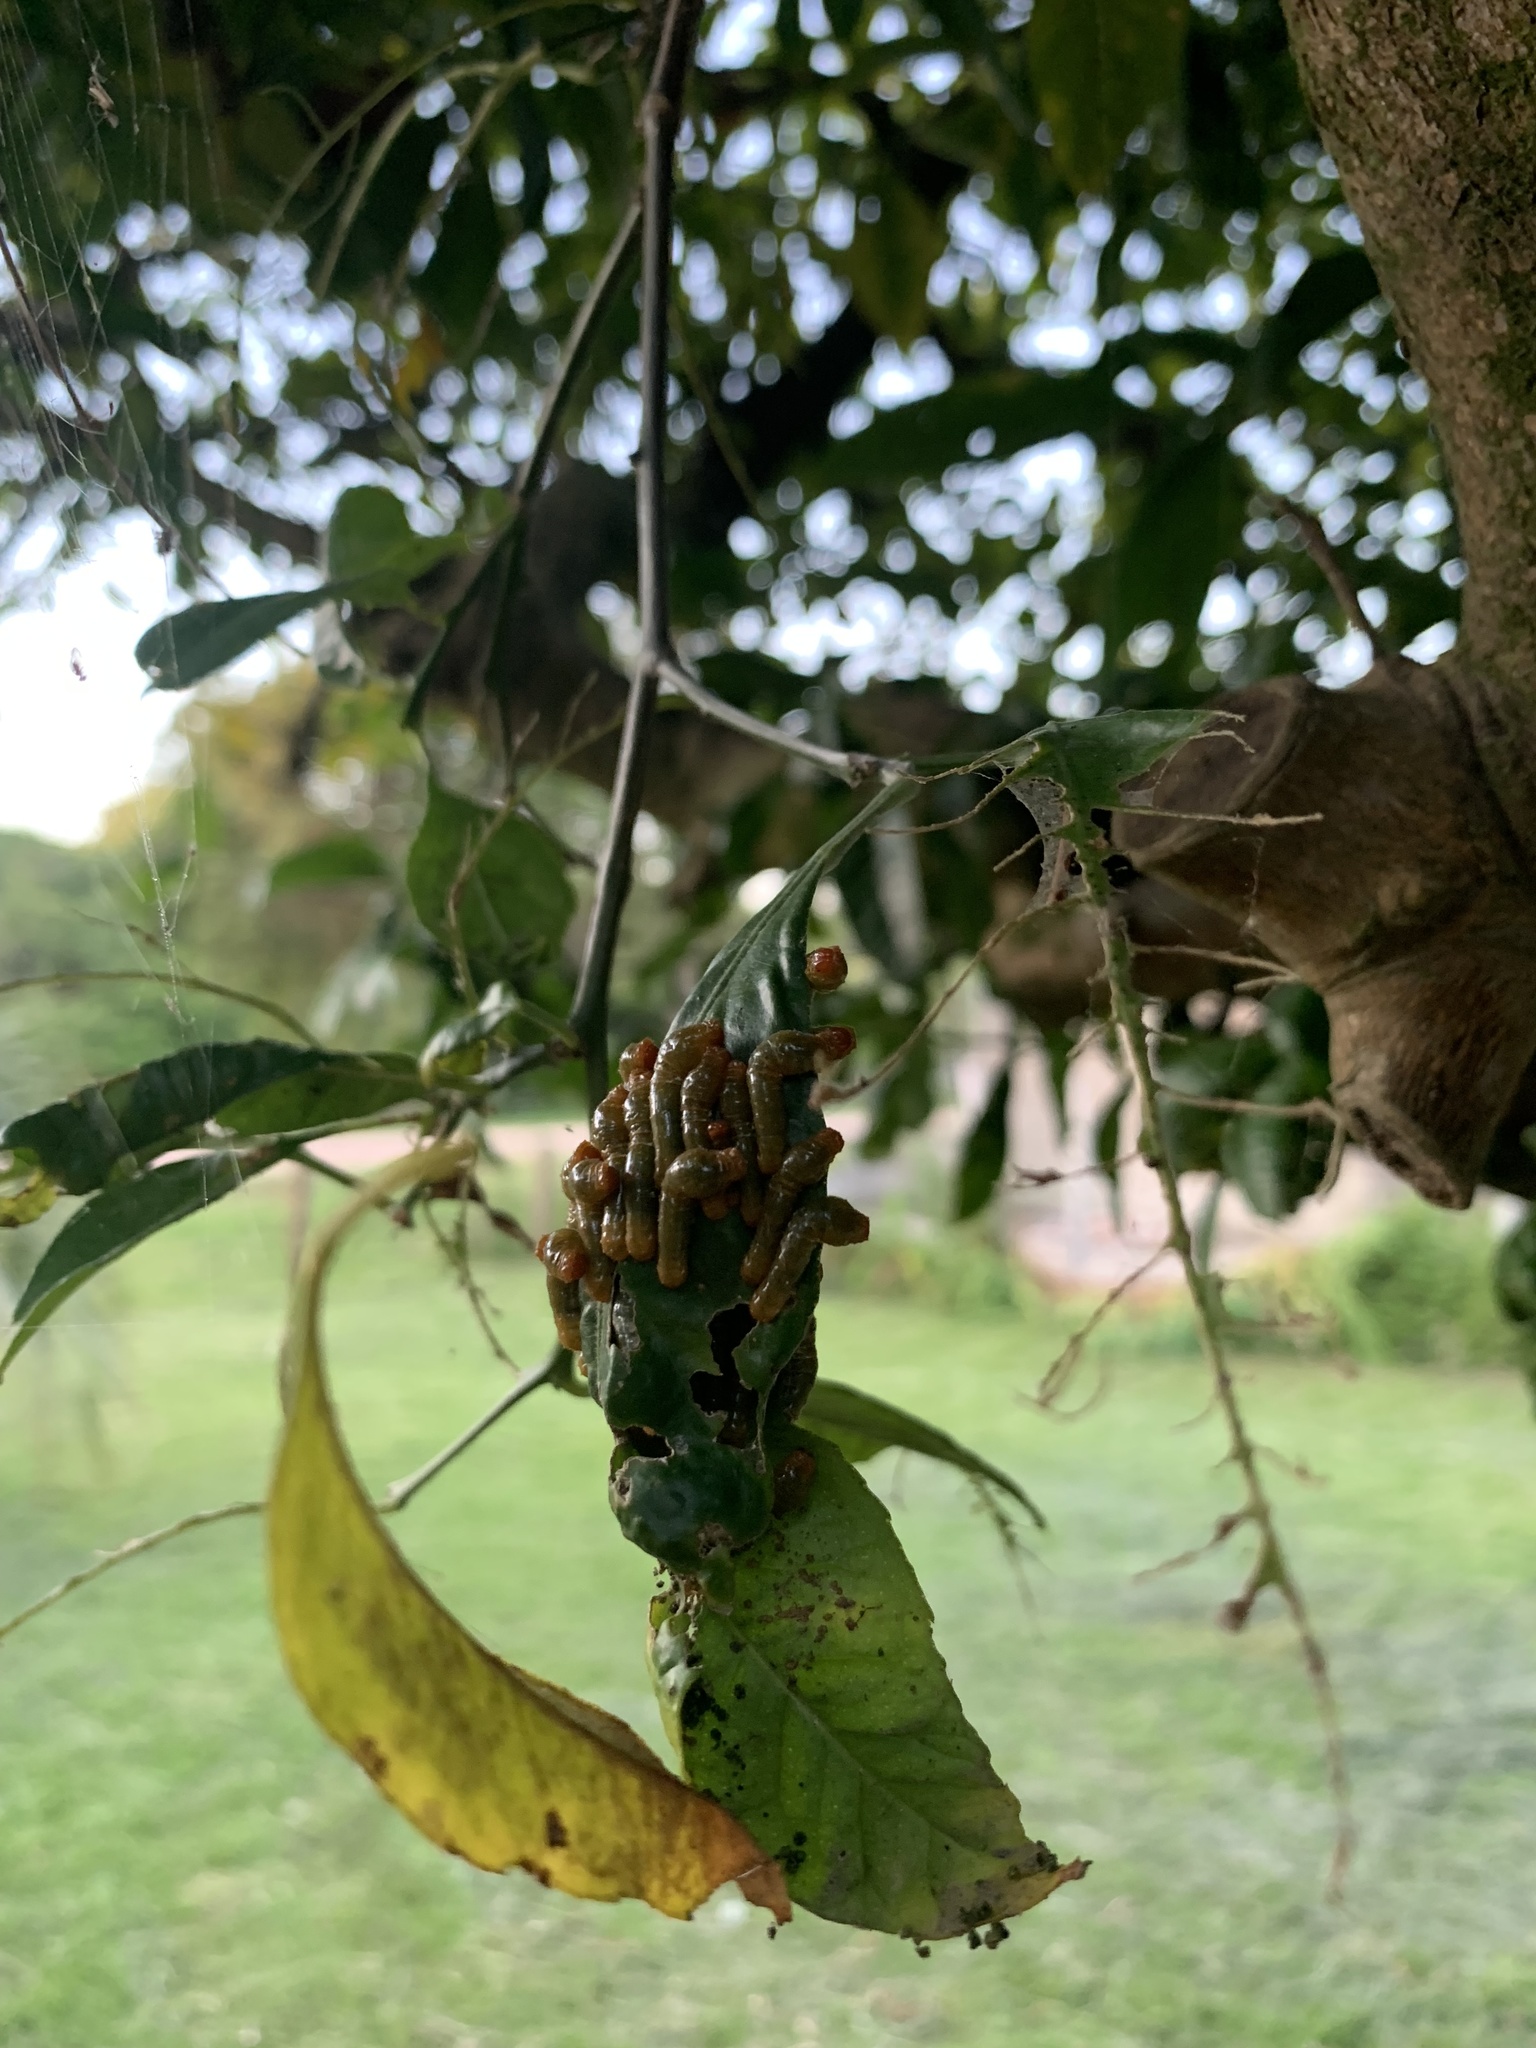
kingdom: Animalia
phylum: Arthropoda
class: Insecta
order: Lepidoptera
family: Papilionidae
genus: Papilio
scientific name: Papilio anchisiades
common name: Idaes swallowtail
